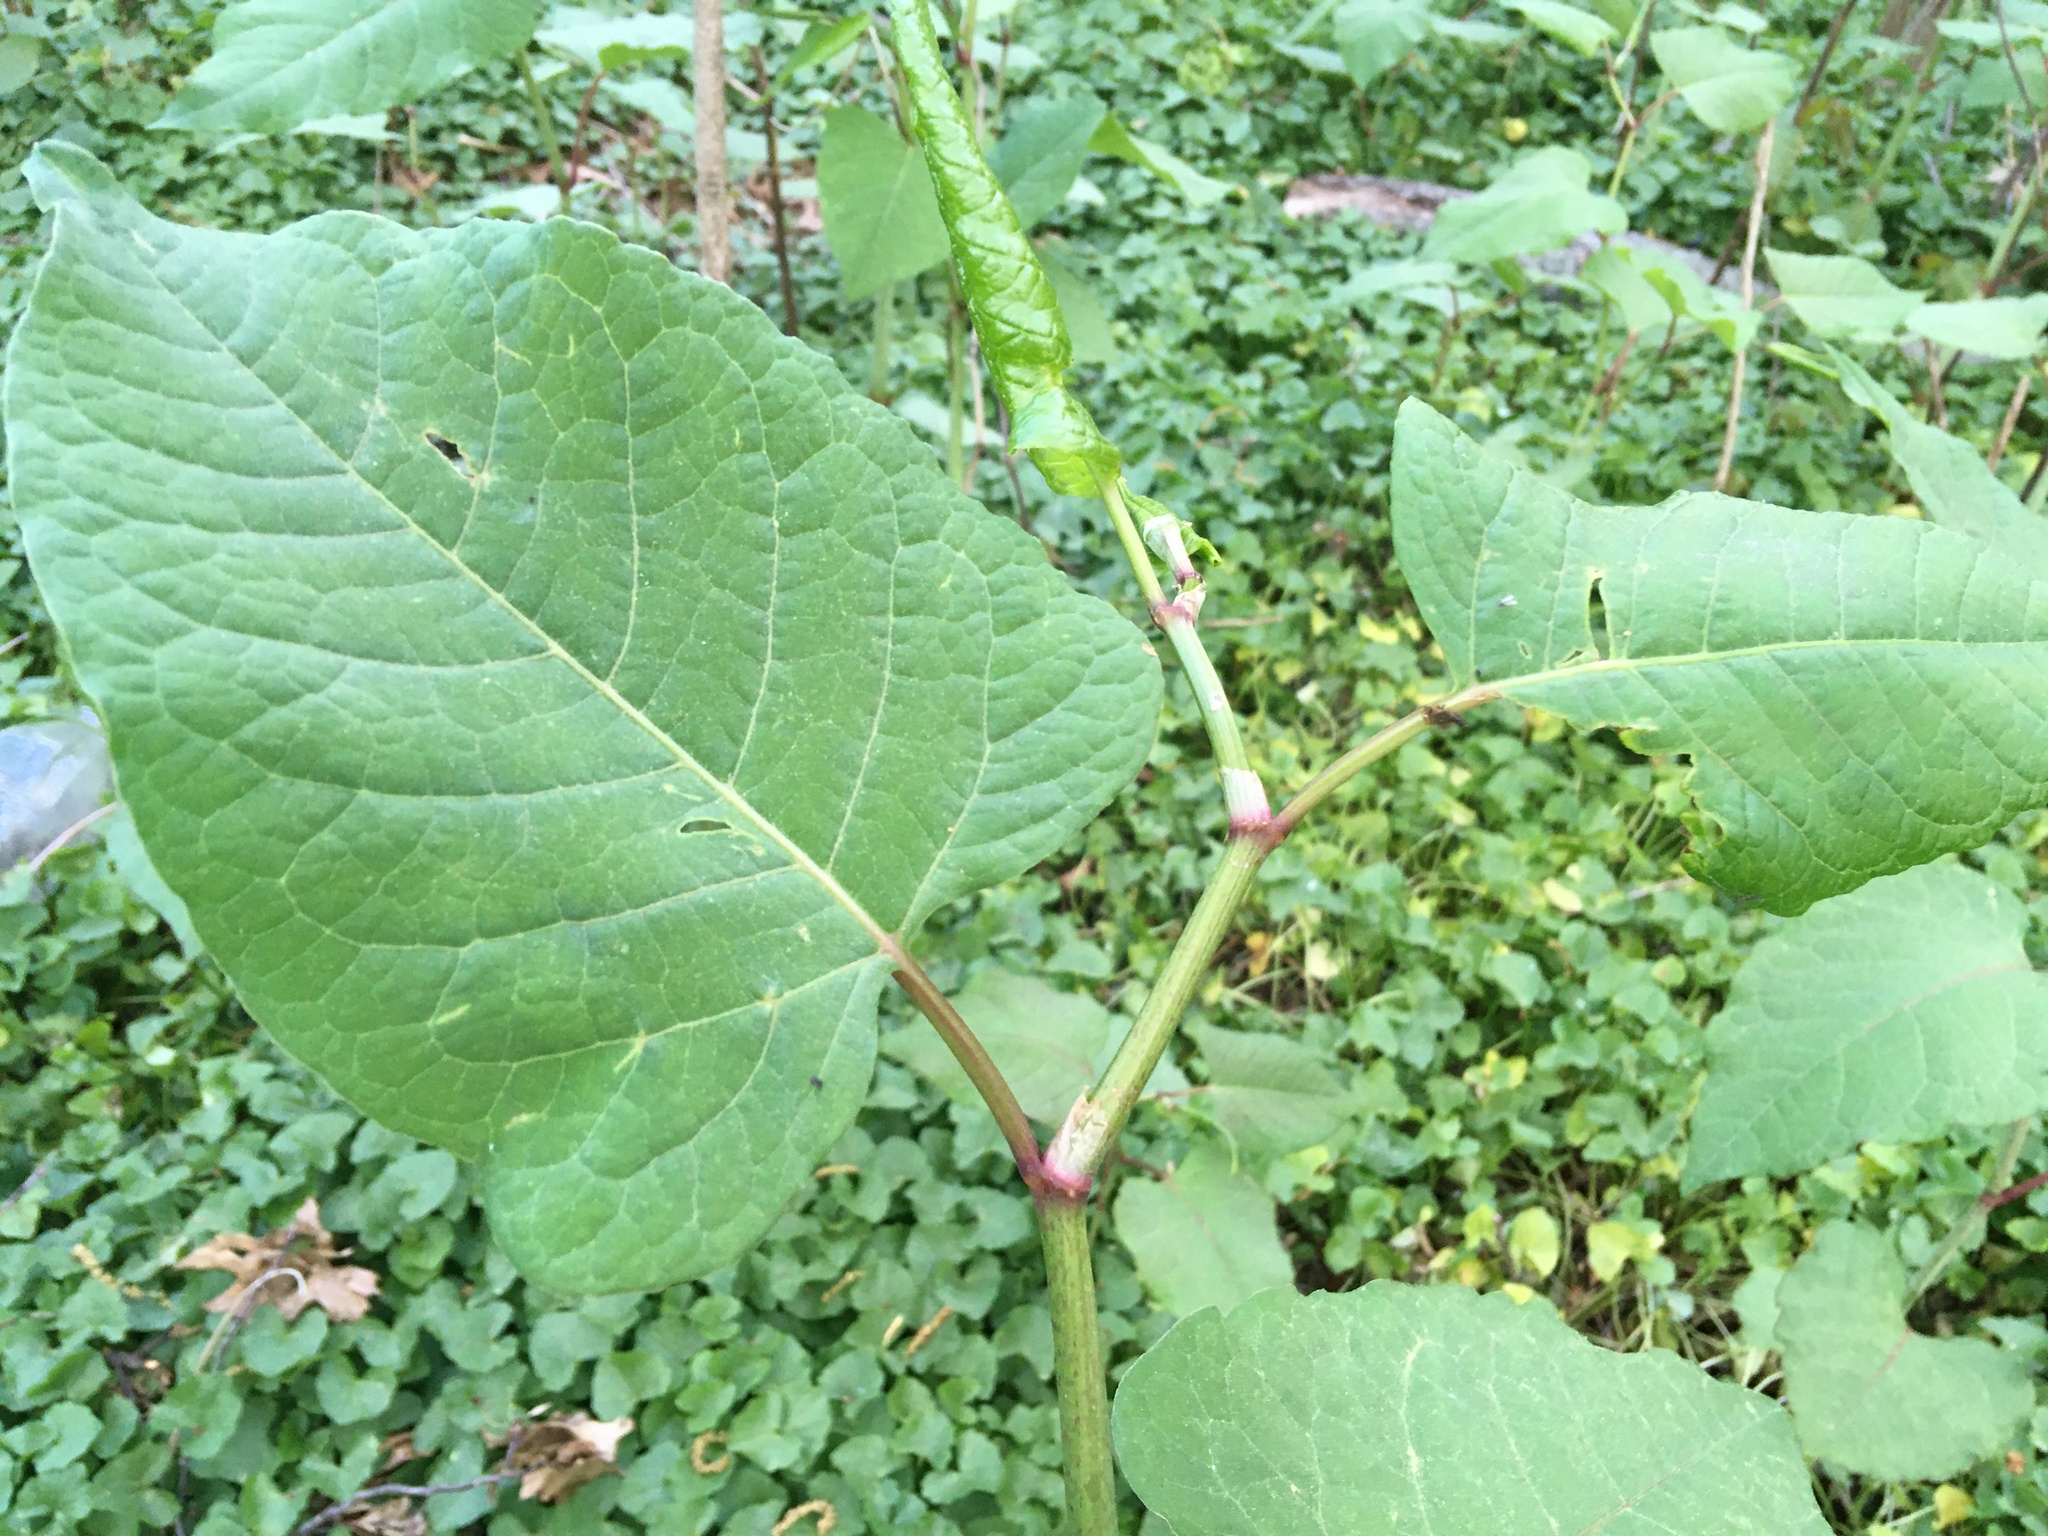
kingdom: Plantae
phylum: Tracheophyta
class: Magnoliopsida
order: Caryophyllales
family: Polygonaceae
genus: Reynoutria
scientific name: Reynoutria japonica
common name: Japanese knotweed
